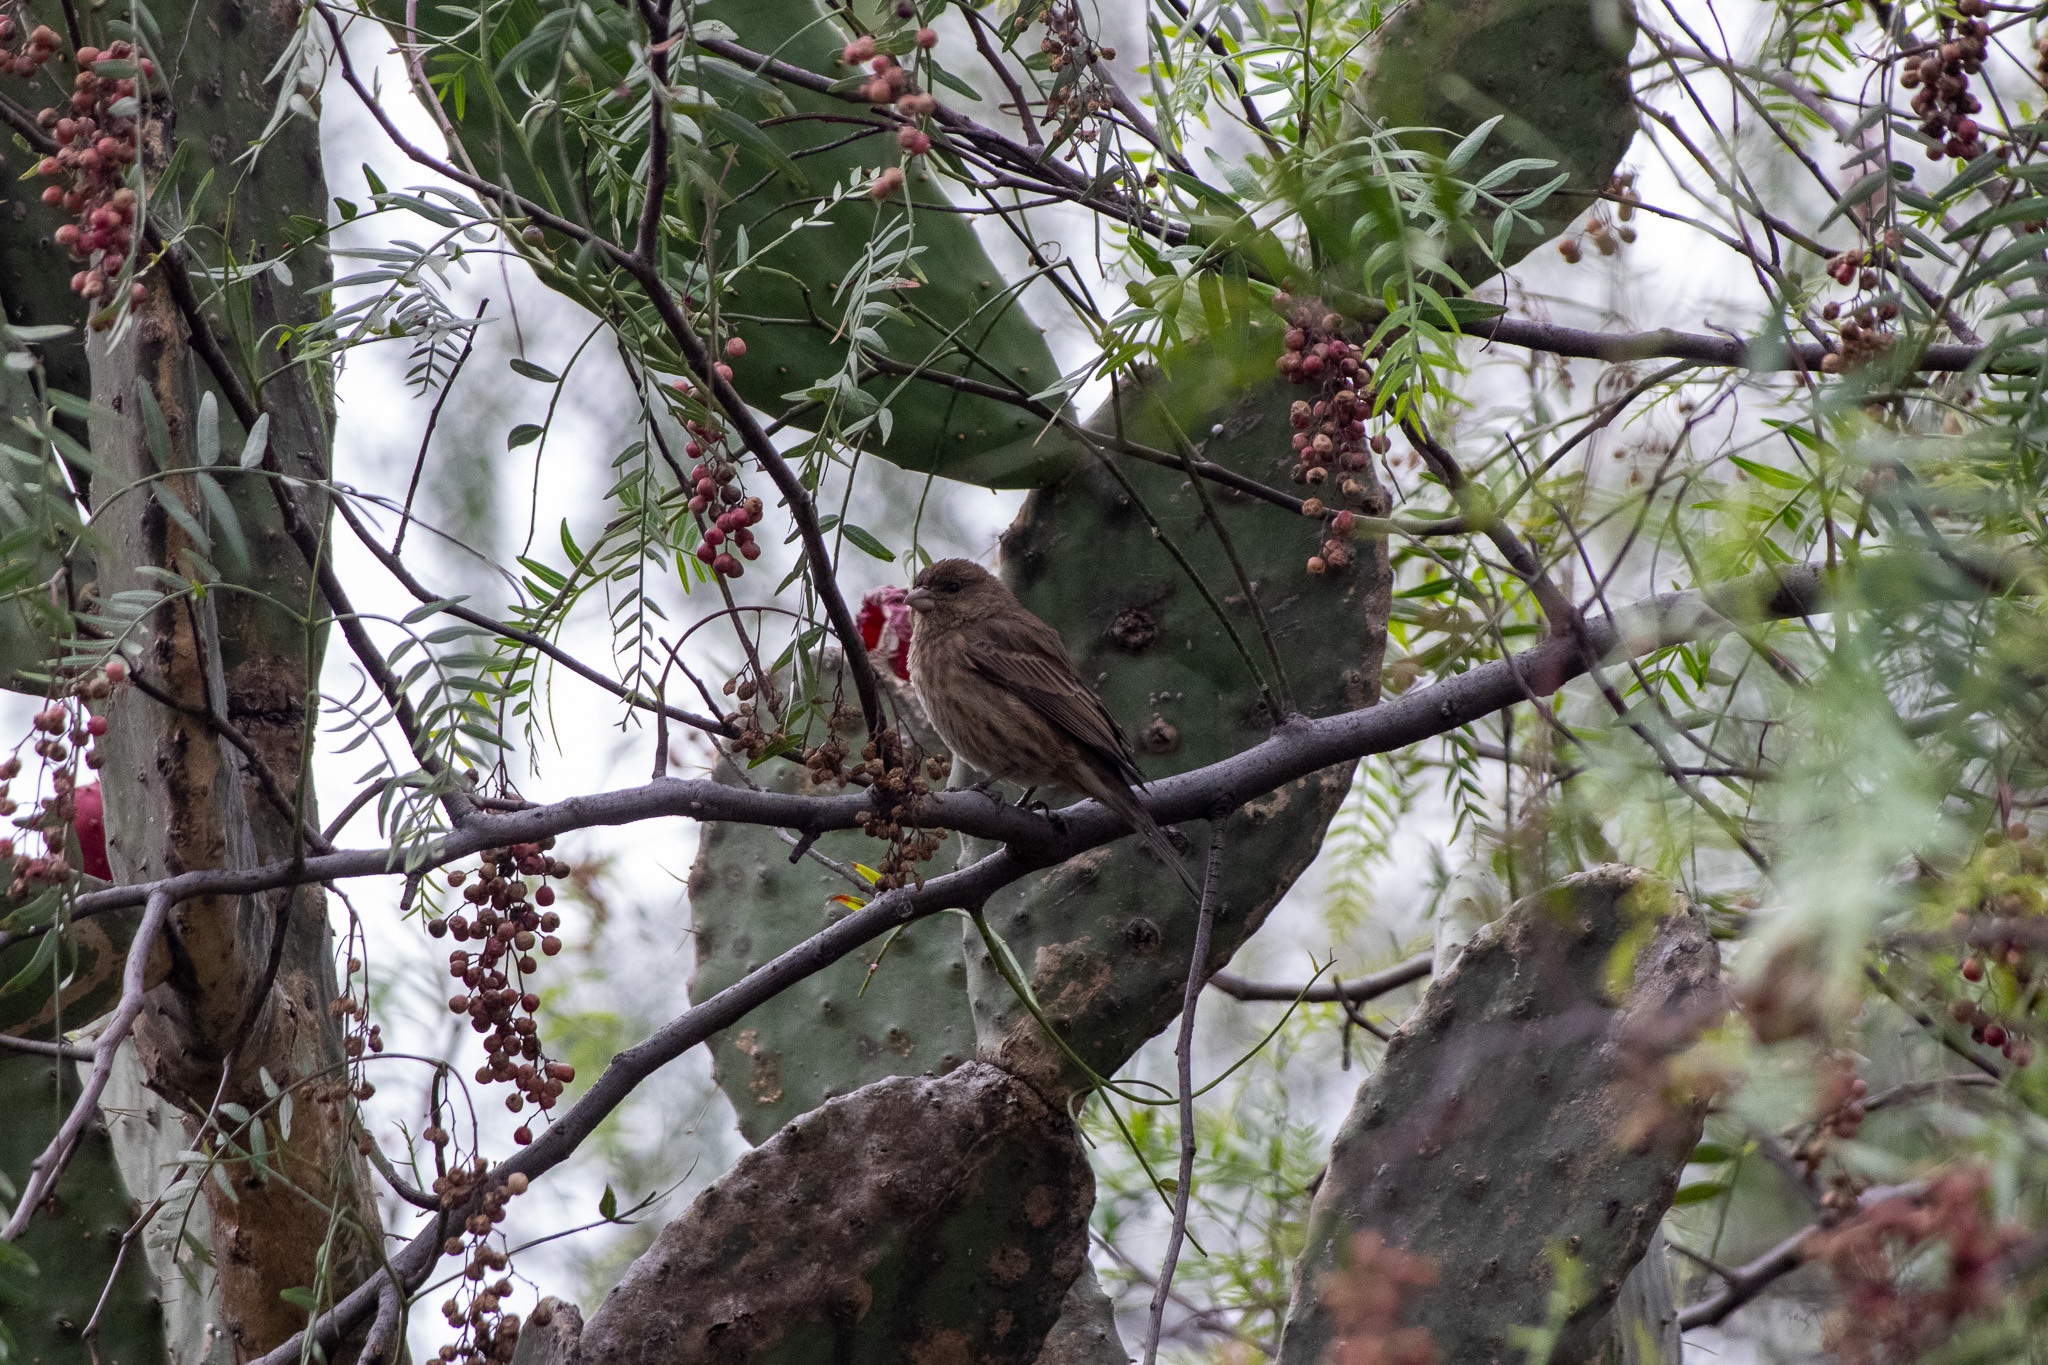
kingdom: Animalia
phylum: Chordata
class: Aves
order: Passeriformes
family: Fringillidae
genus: Haemorhous
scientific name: Haemorhous mexicanus
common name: House finch
